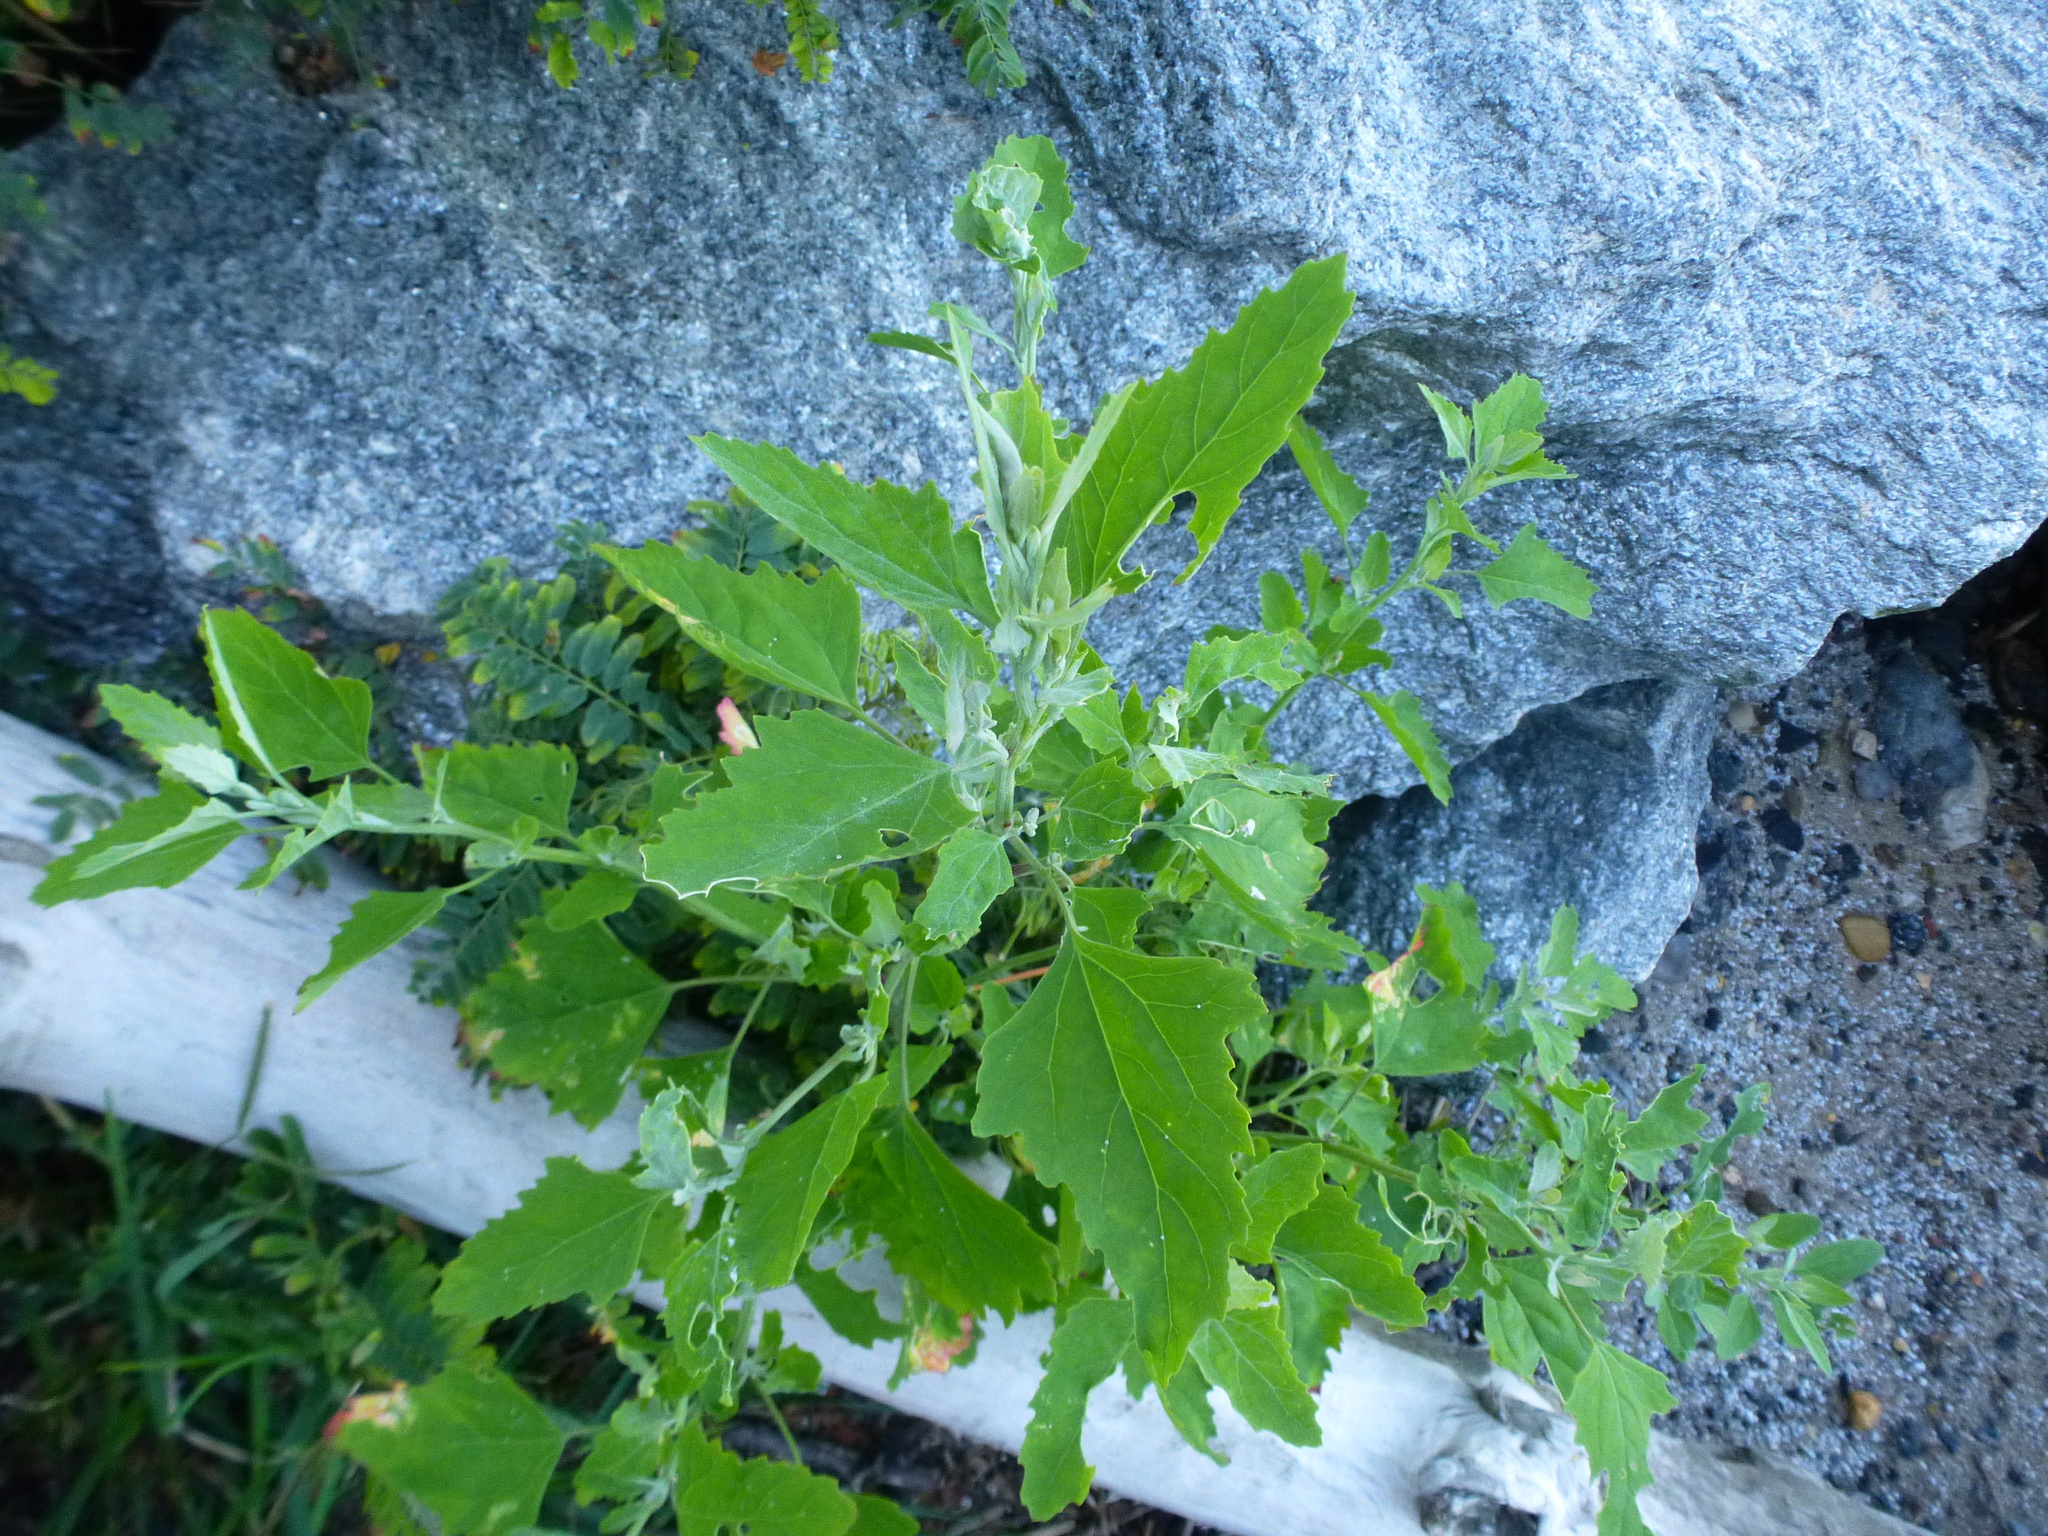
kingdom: Plantae
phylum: Tracheophyta
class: Magnoliopsida
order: Caryophyllales
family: Amaranthaceae
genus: Chenopodium
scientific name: Chenopodium album
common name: Fat-hen
